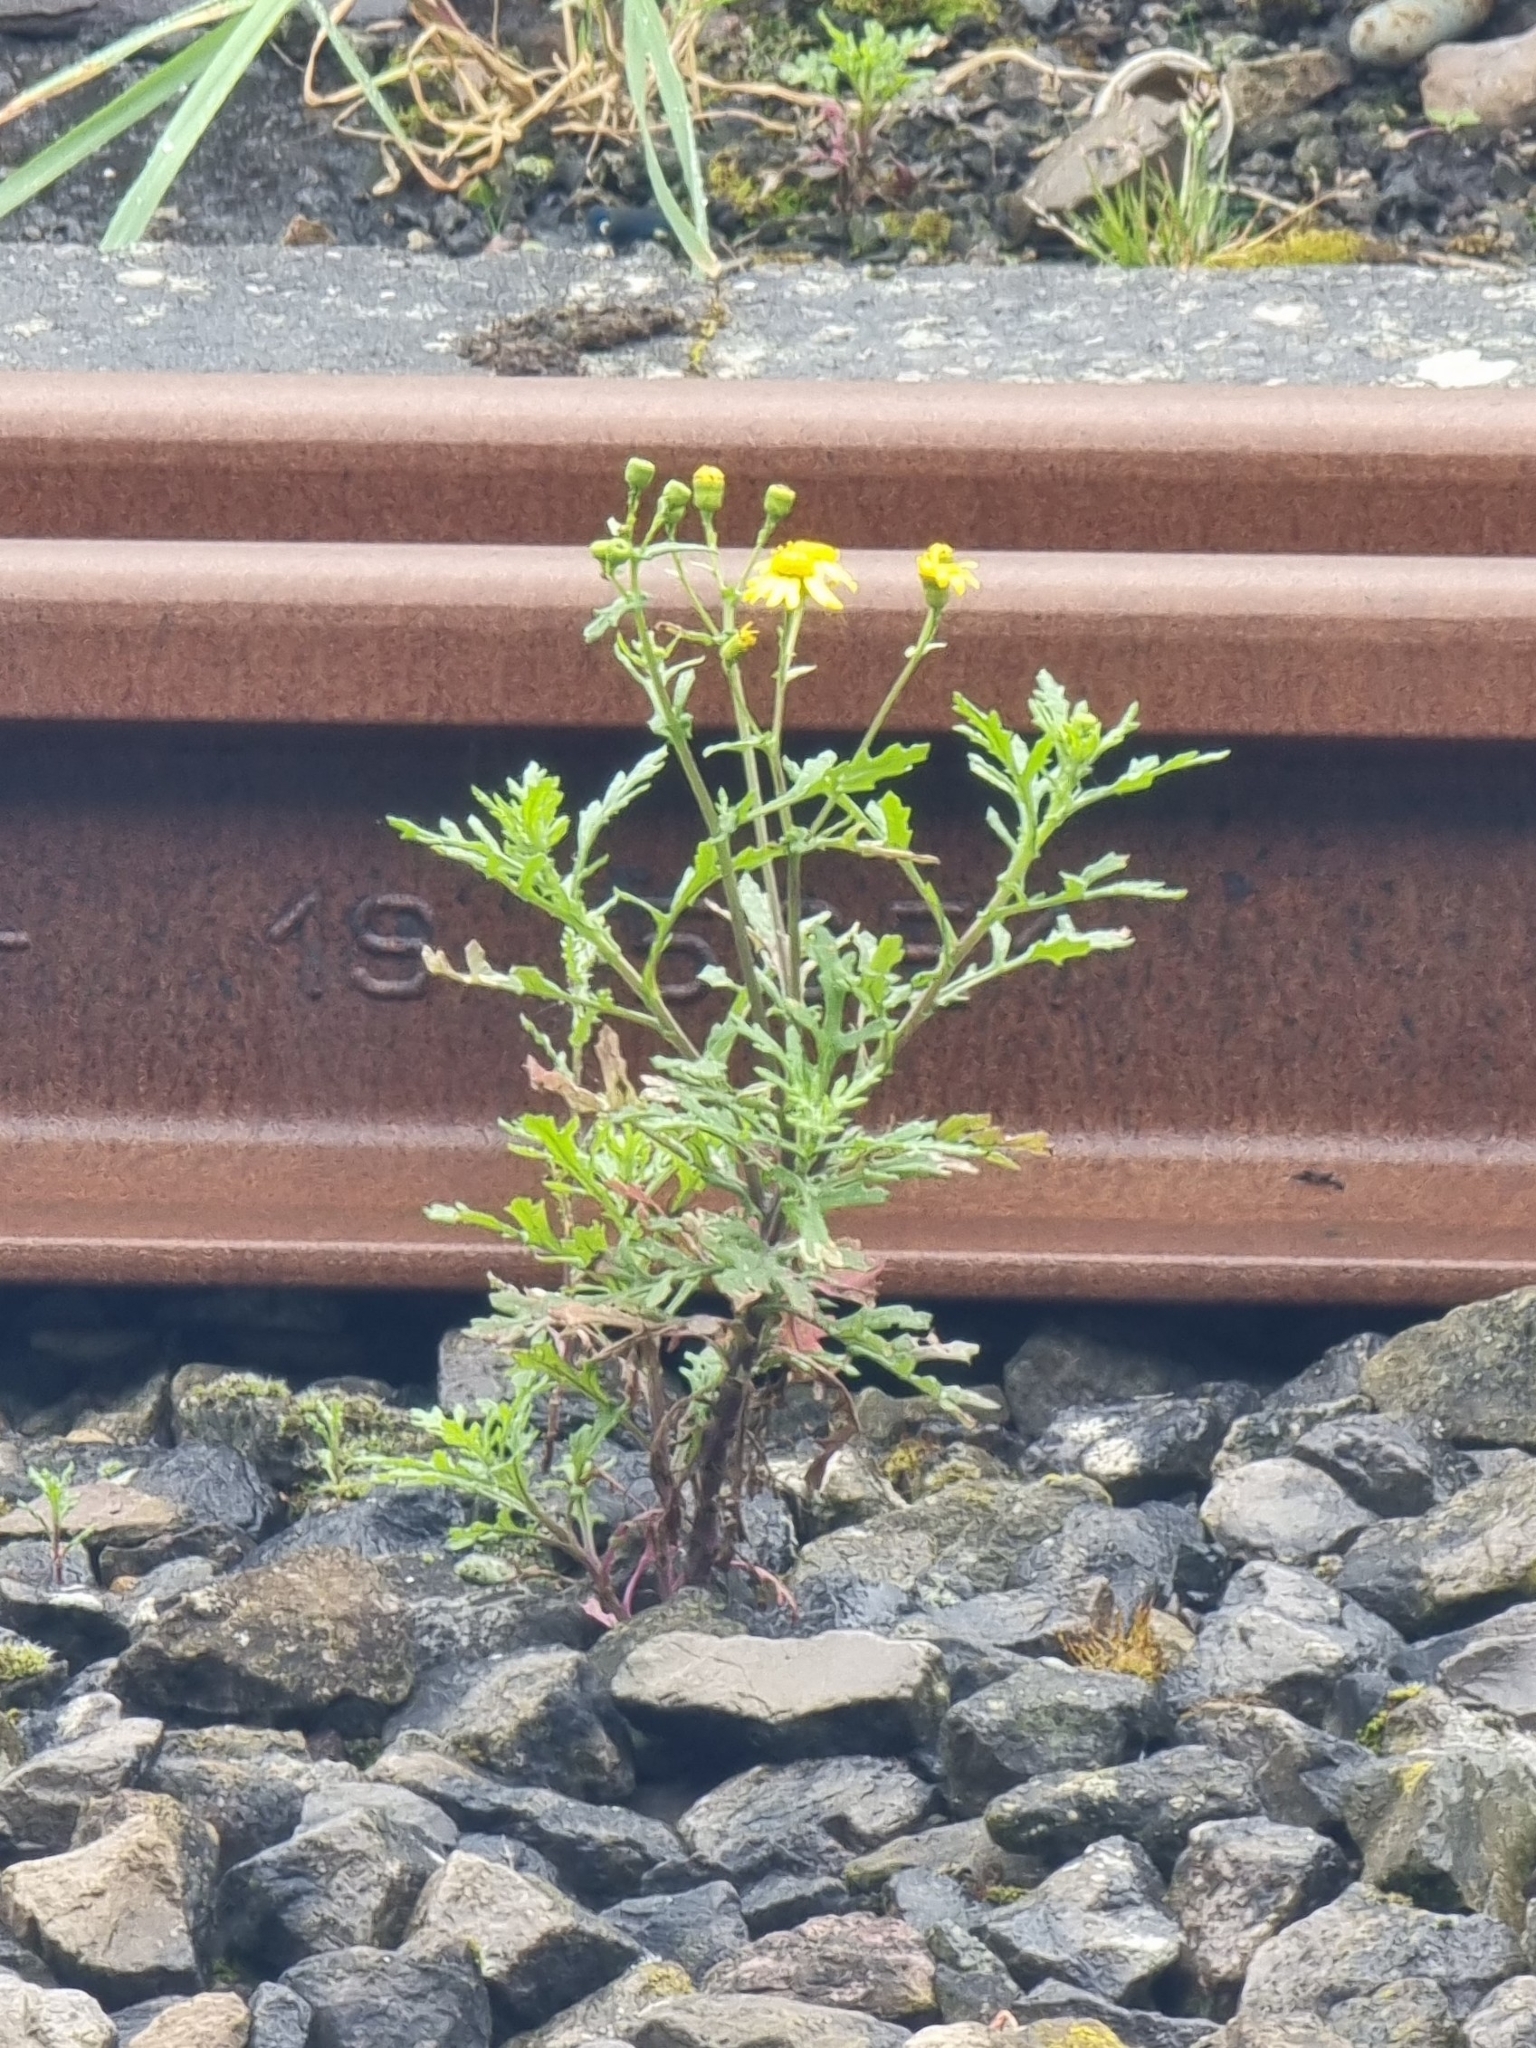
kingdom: Plantae
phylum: Tracheophyta
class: Magnoliopsida
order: Asterales
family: Asteraceae
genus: Senecio
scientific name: Senecio squalidus
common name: Oxford ragwort
